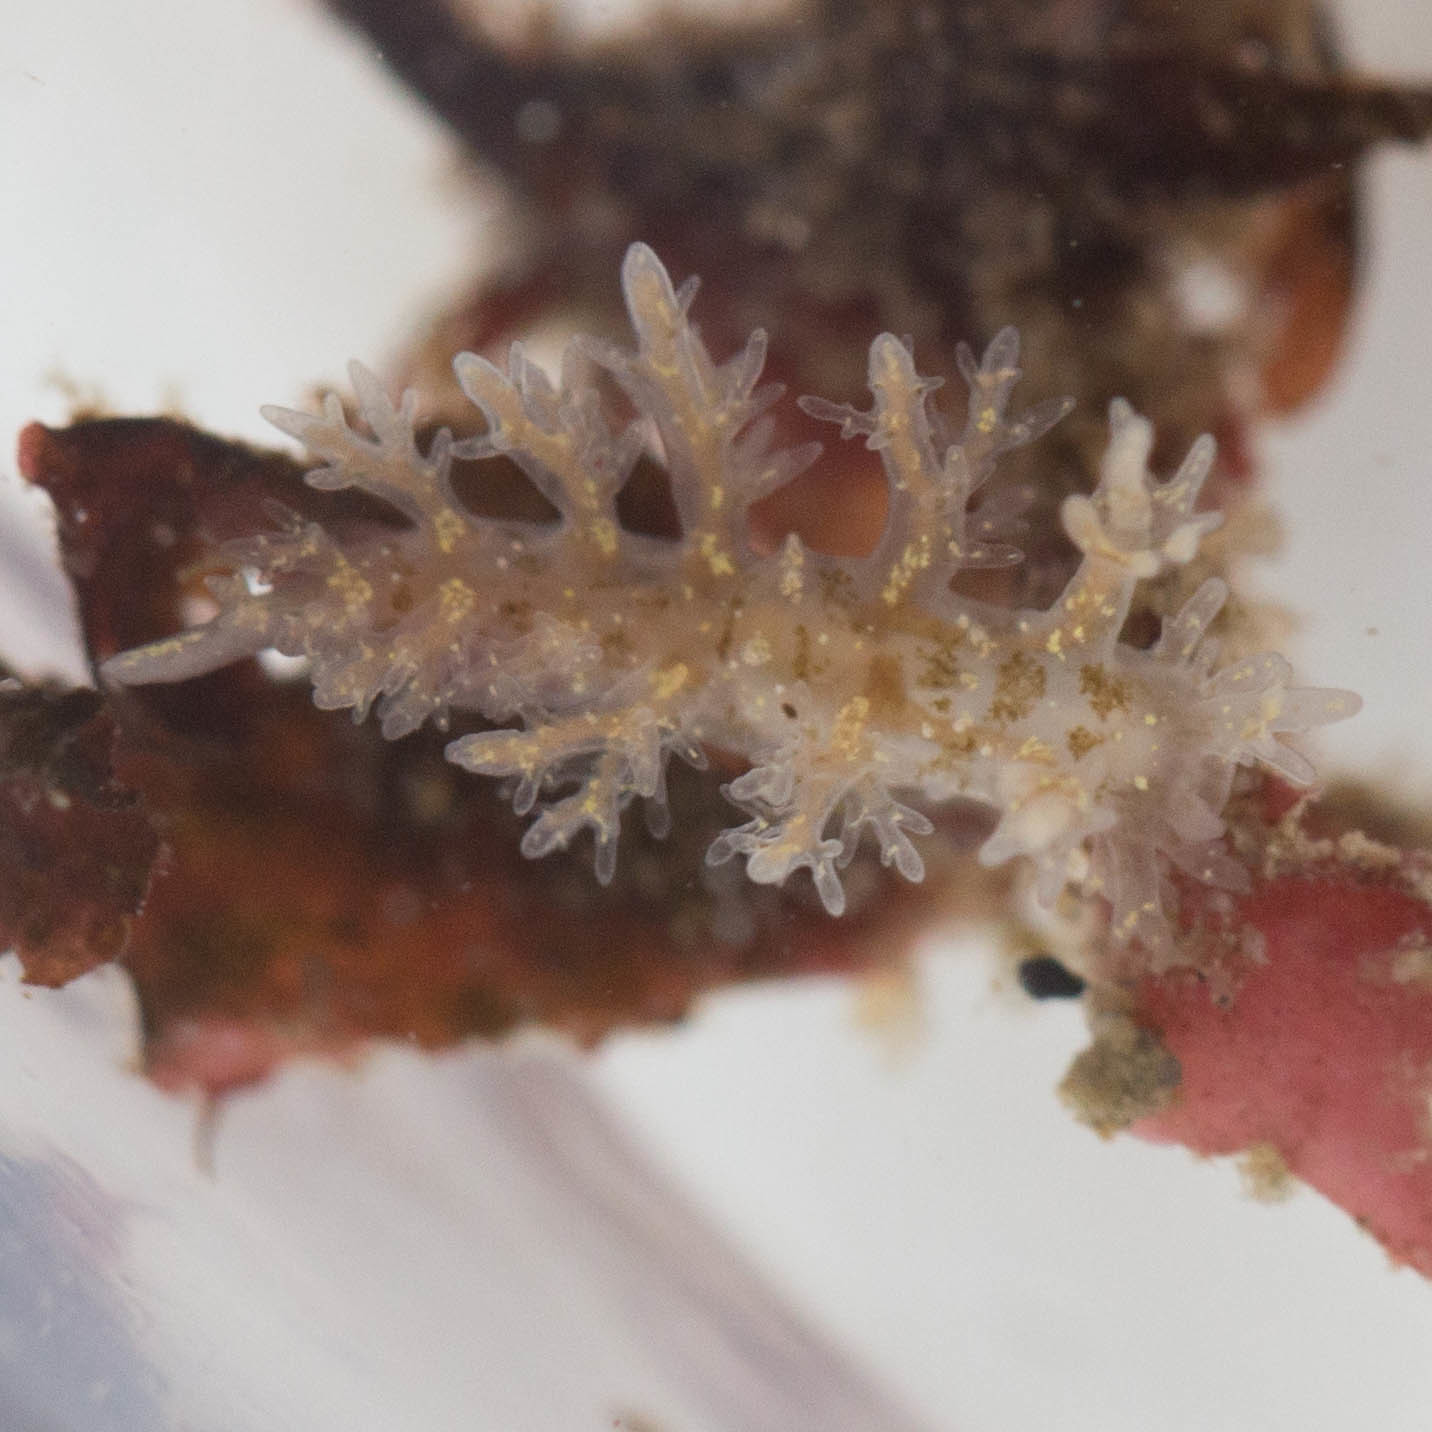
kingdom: Animalia
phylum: Mollusca
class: Gastropoda
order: Nudibranchia
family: Dendronotidae
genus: Dendronotus
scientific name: Dendronotus venustus
